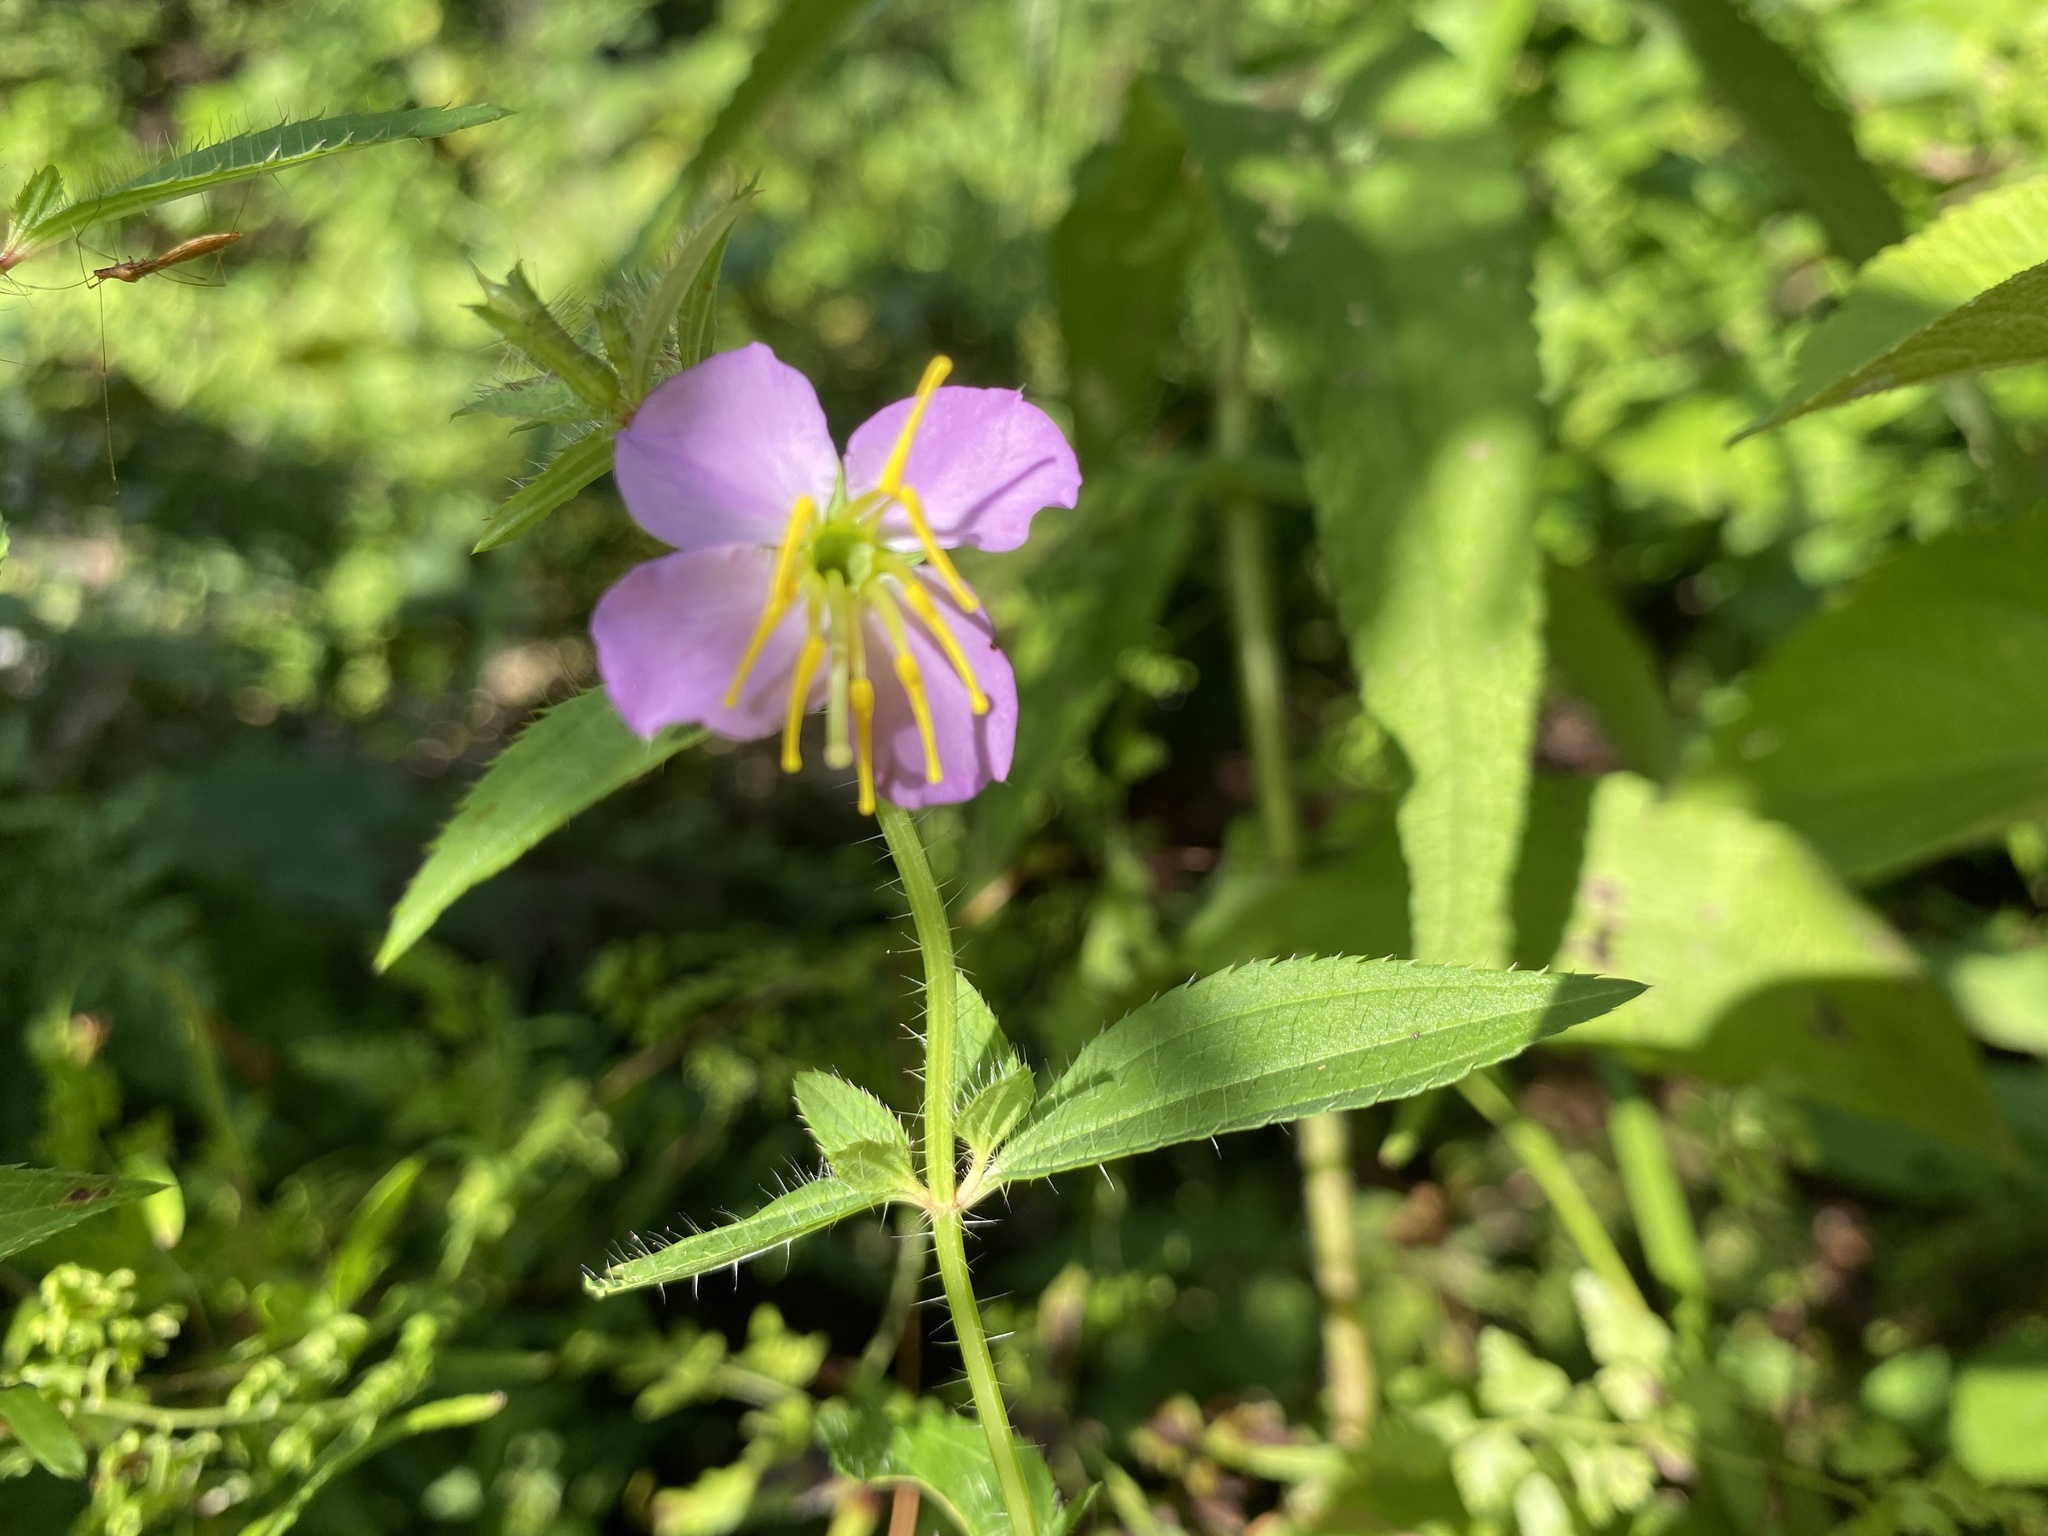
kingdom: Plantae
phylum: Tracheophyta
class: Magnoliopsida
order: Myrtales
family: Melastomataceae
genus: Rhexia
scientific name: Rhexia mariana
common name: Dull meadow-pitcher
